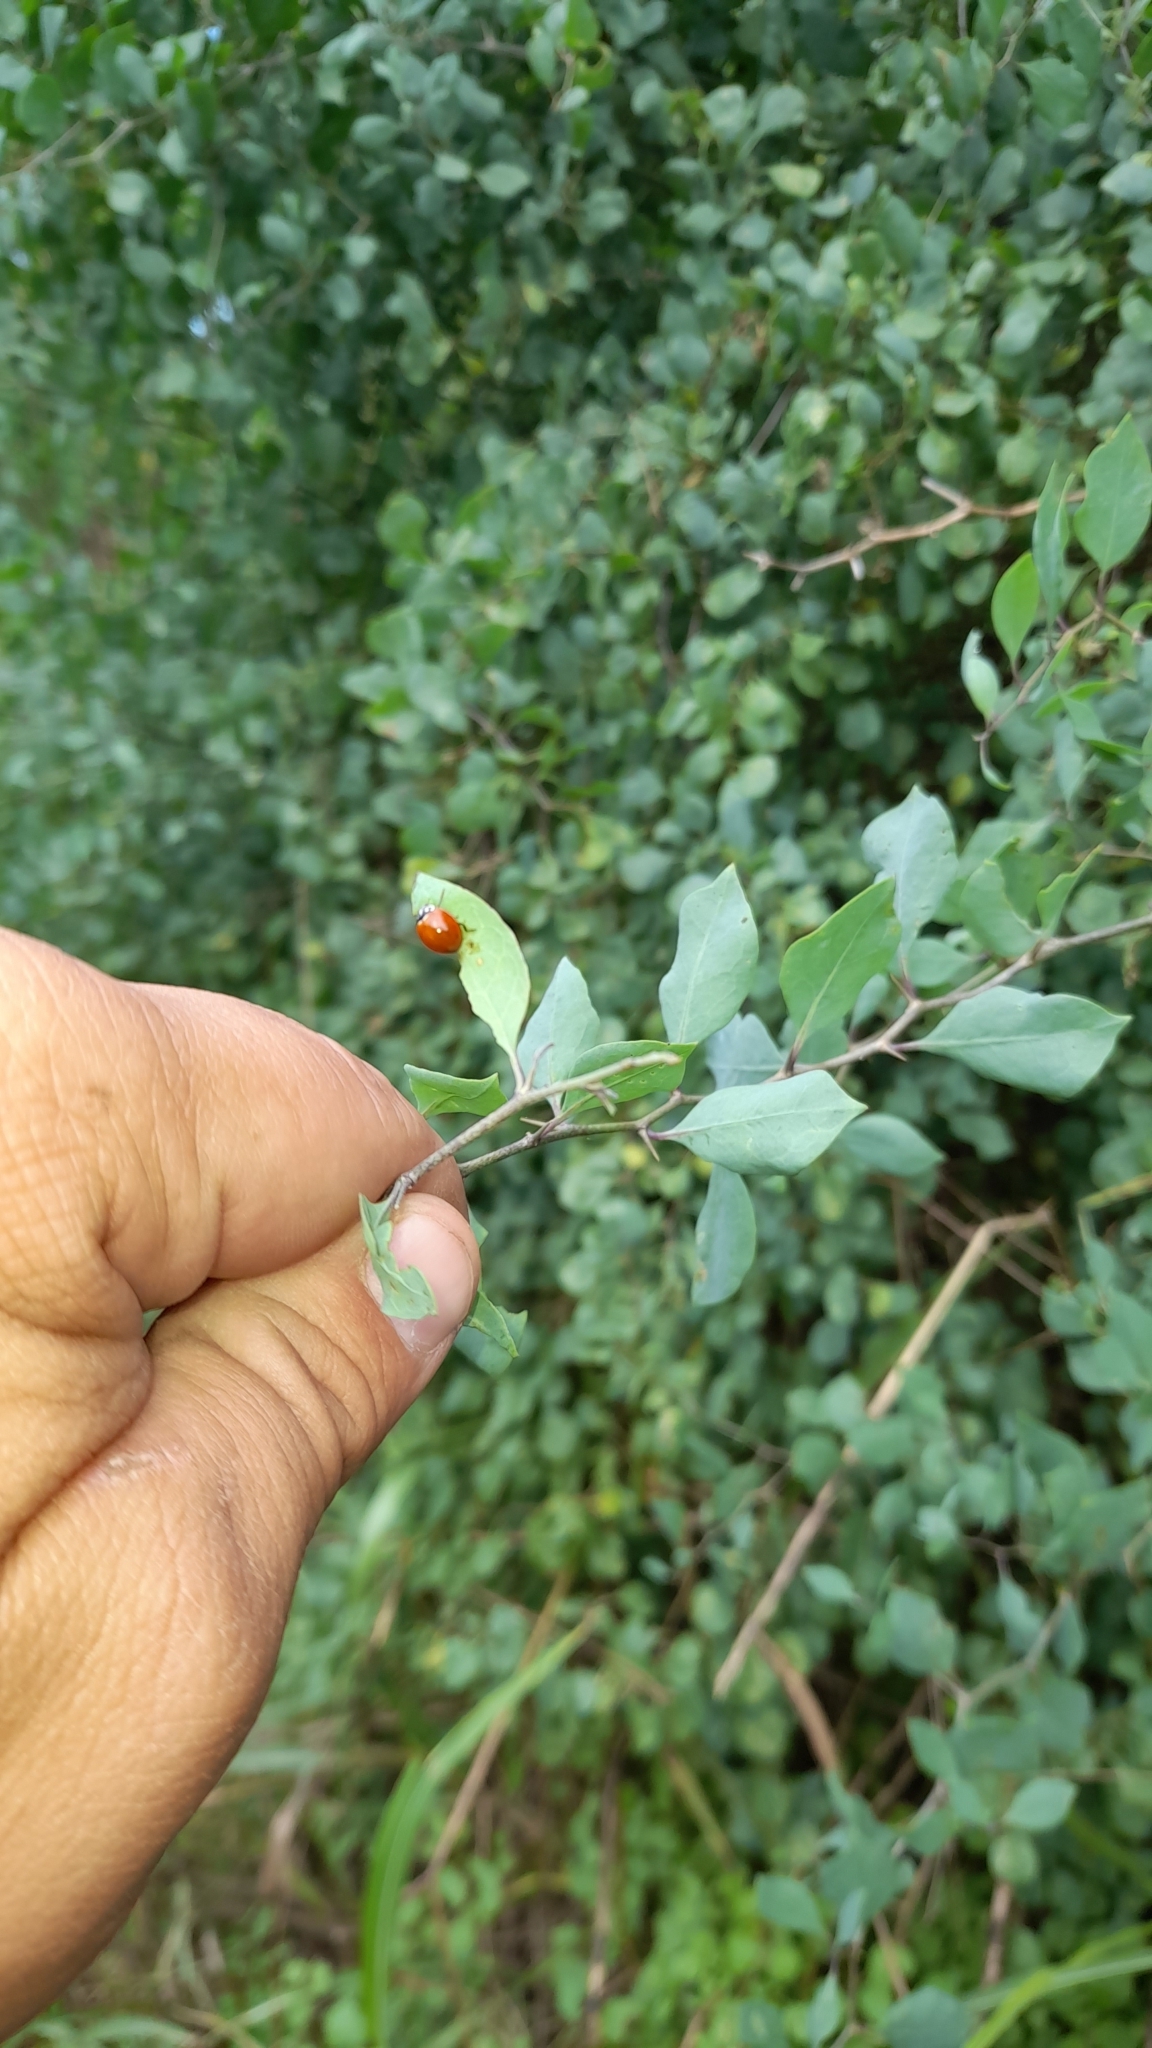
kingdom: Animalia
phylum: Arthropoda
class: Insecta
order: Coleoptera
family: Coccinellidae
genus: Cycloneda
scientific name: Cycloneda sanguinea
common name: Ladybird beetle
